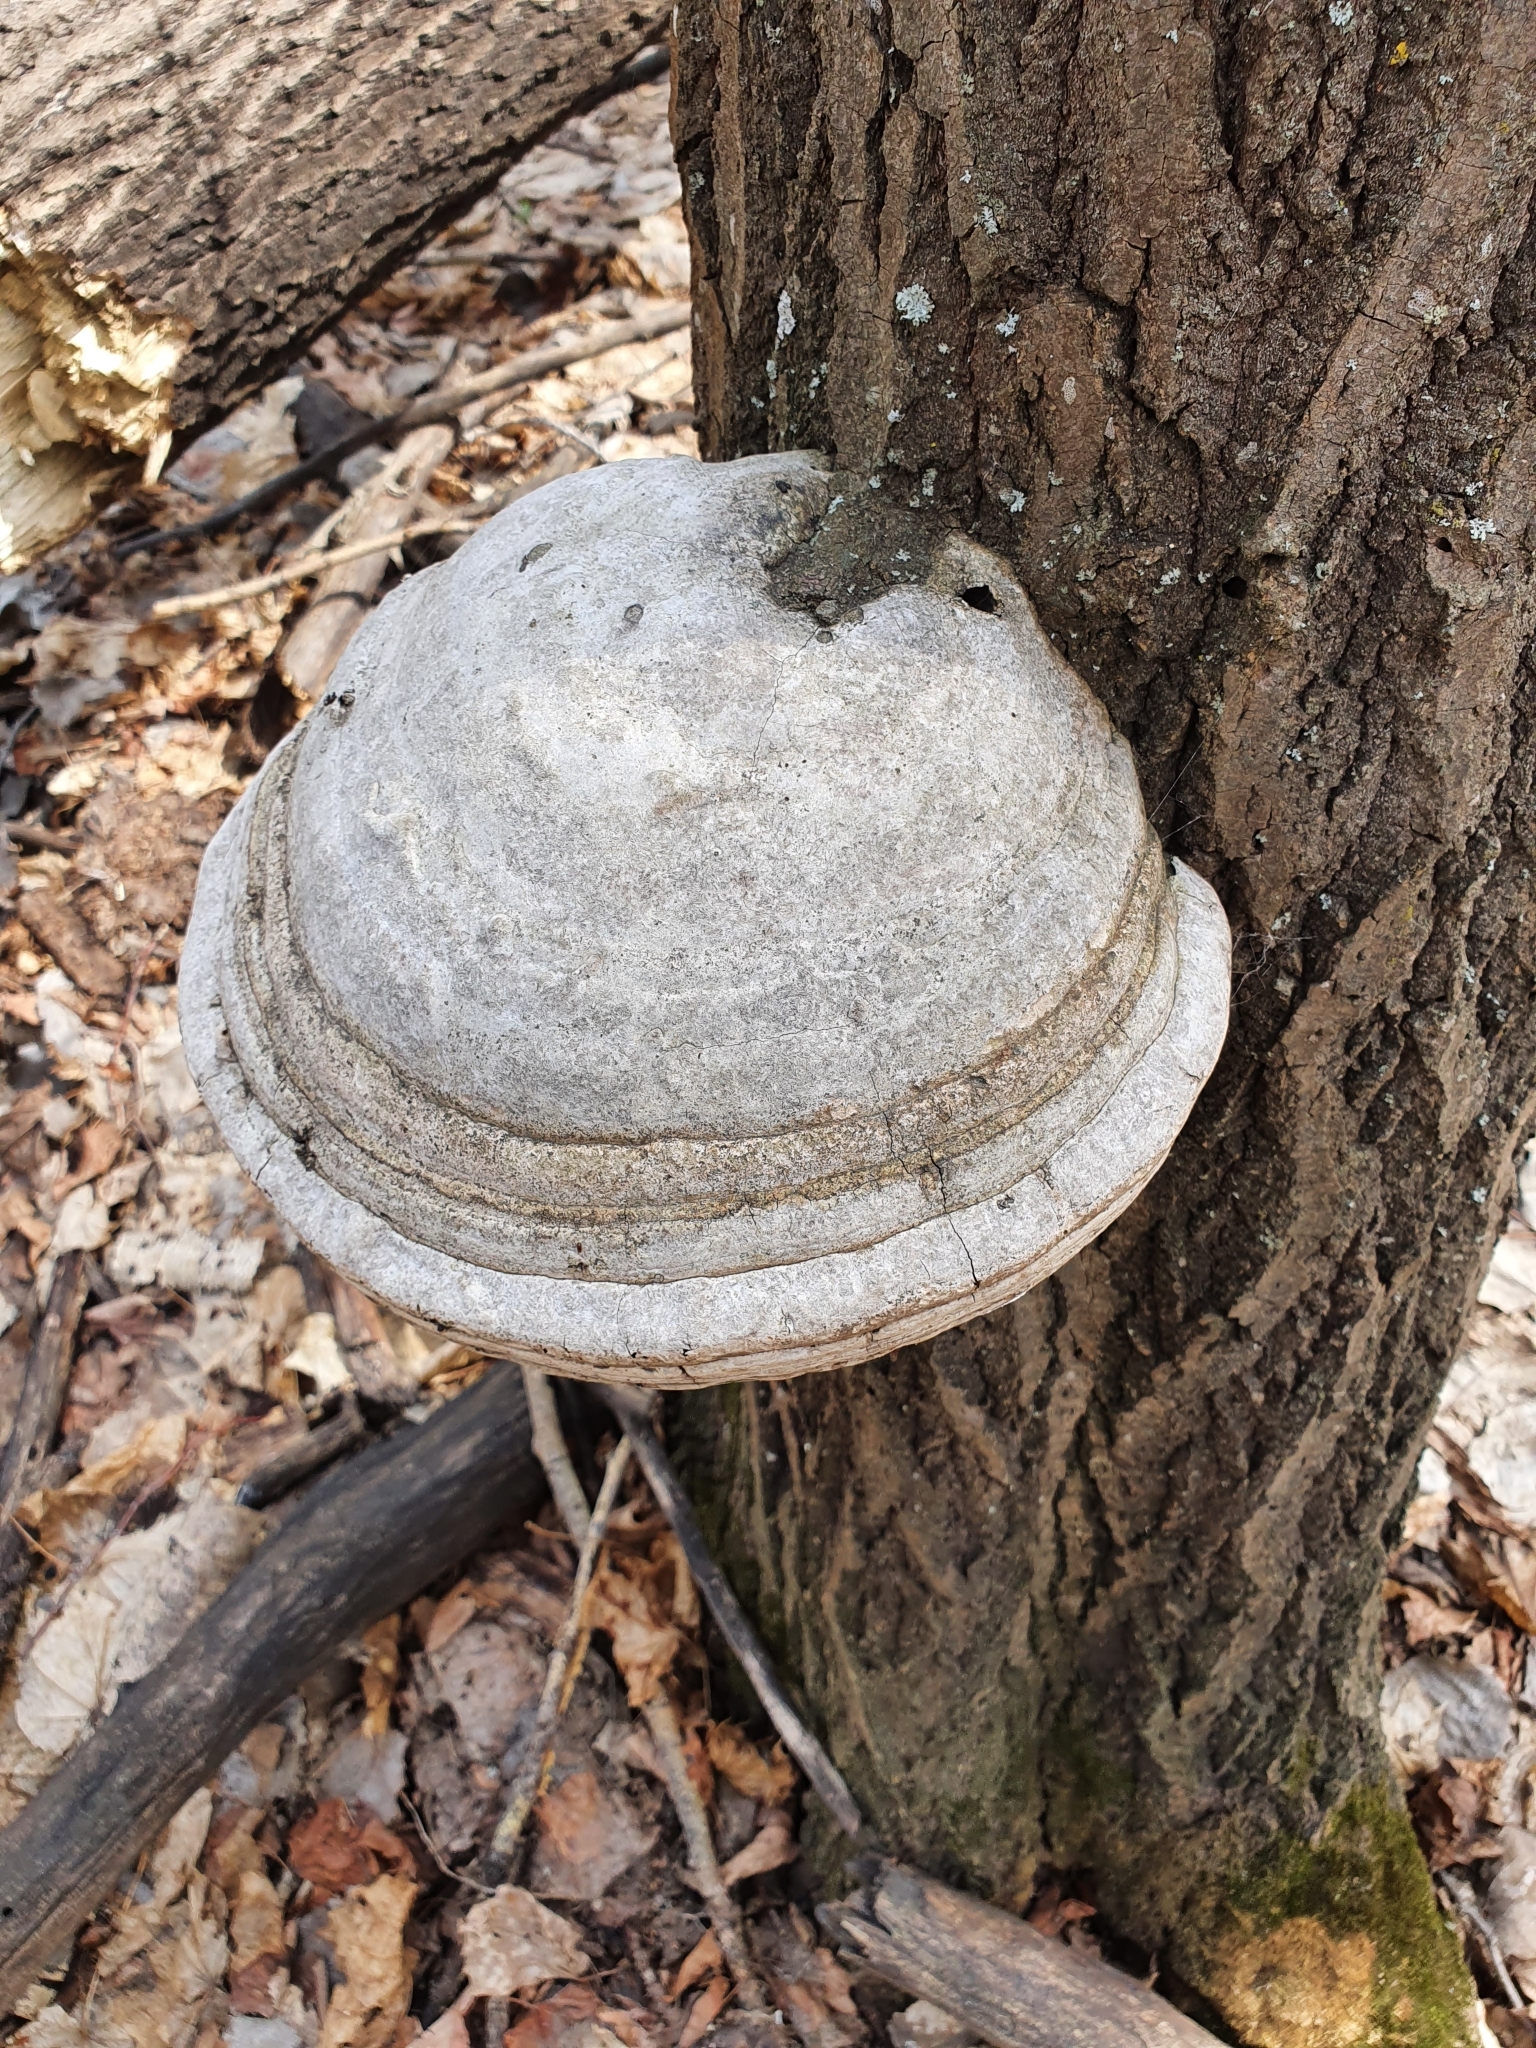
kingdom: Fungi
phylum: Basidiomycota
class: Agaricomycetes
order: Polyporales
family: Polyporaceae
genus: Fomes
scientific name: Fomes fomentarius
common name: Hoof fungus
